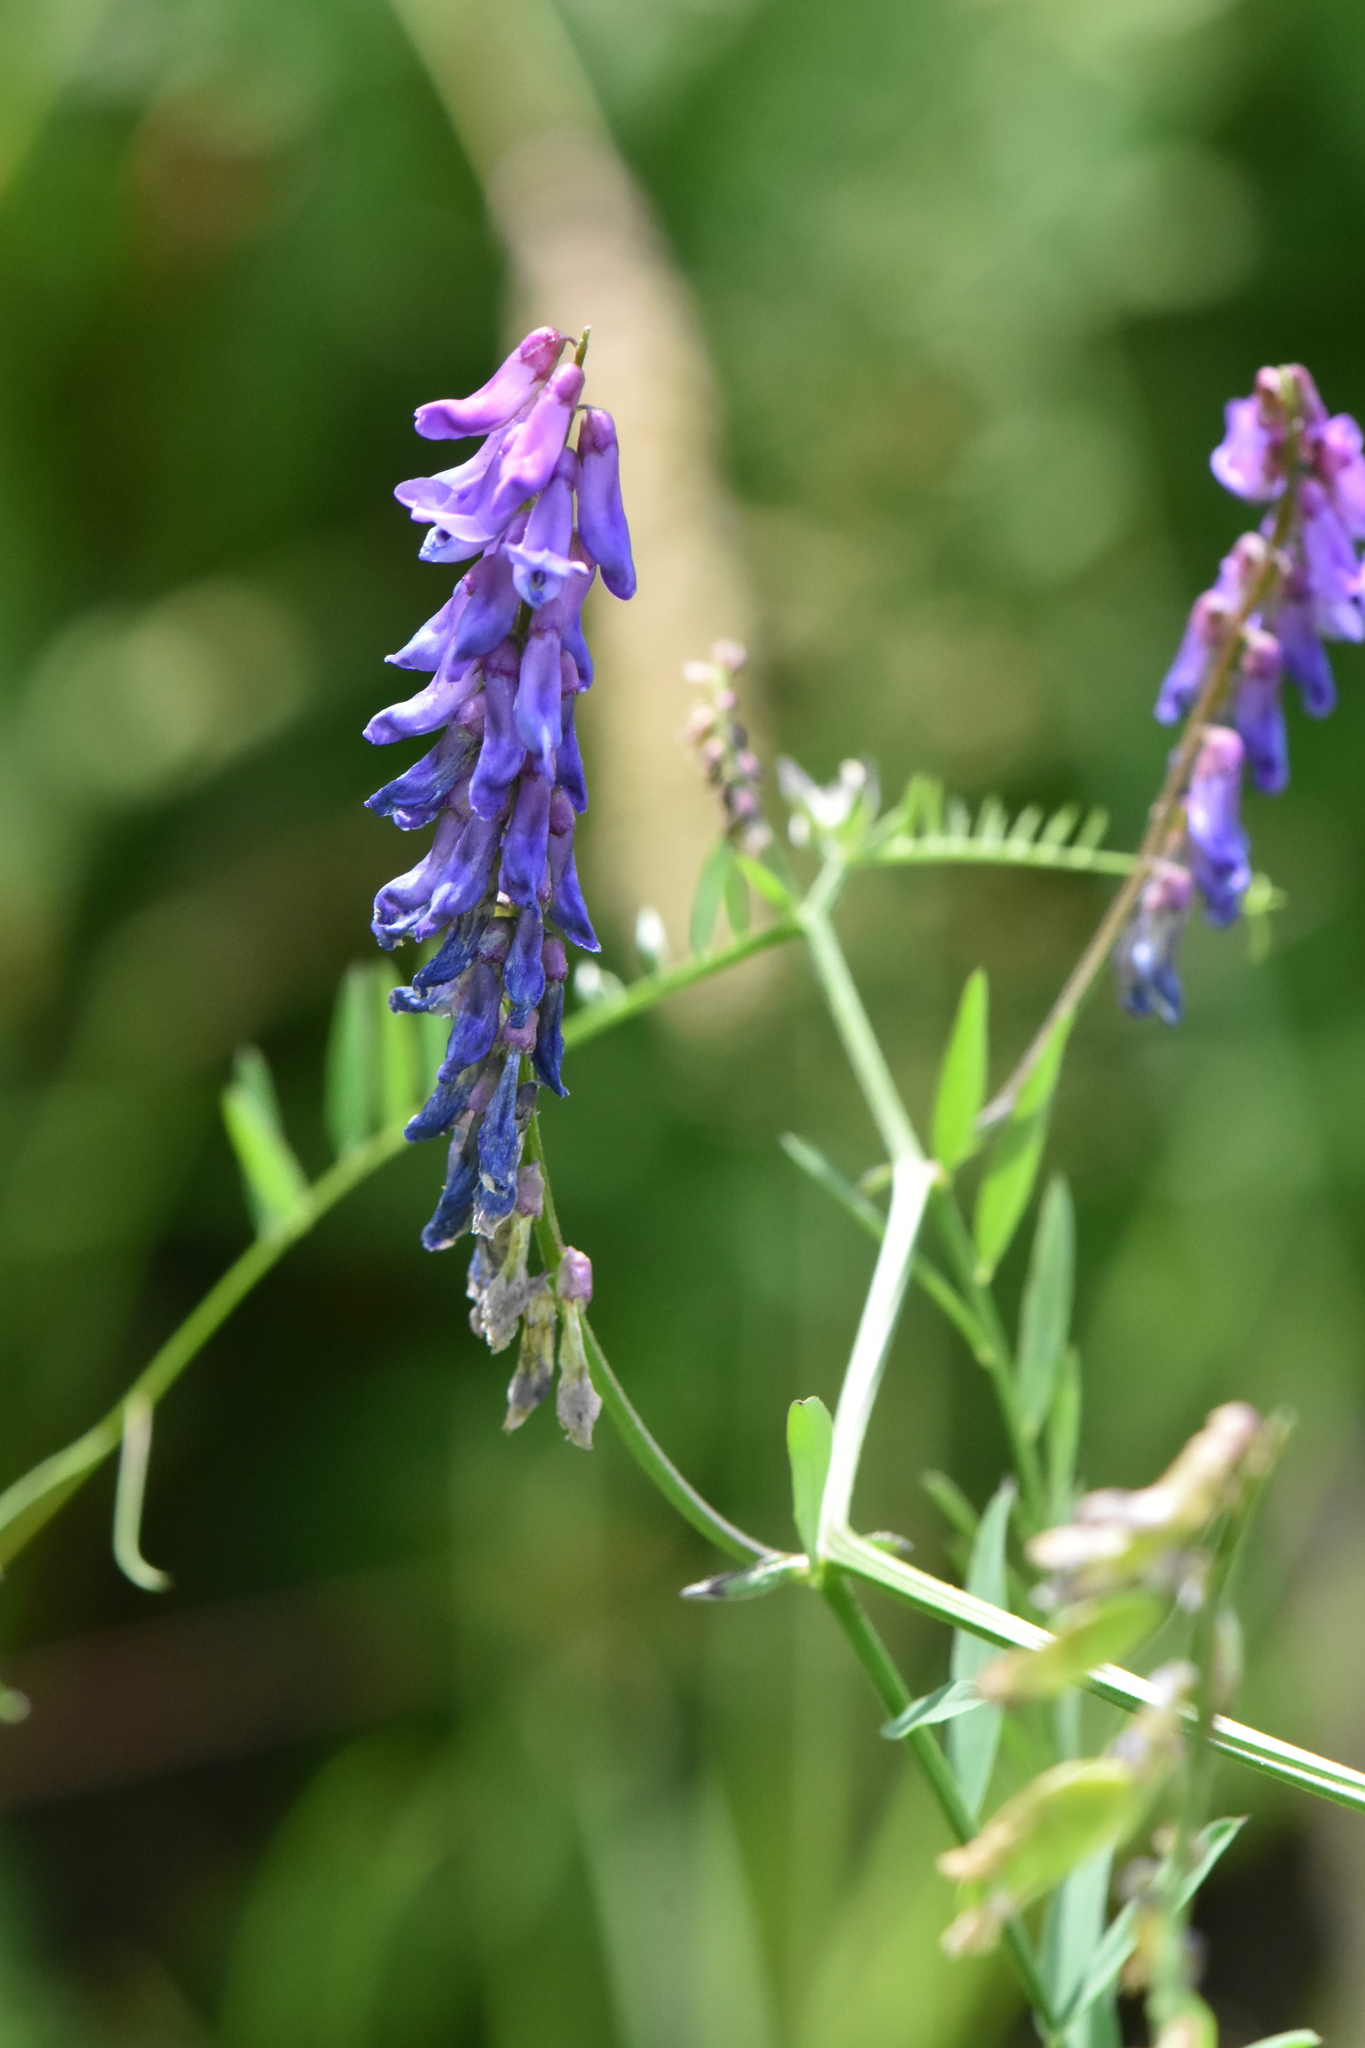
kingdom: Plantae
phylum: Tracheophyta
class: Magnoliopsida
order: Fabales
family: Fabaceae
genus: Vicia
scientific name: Vicia cracca
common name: Bird vetch
